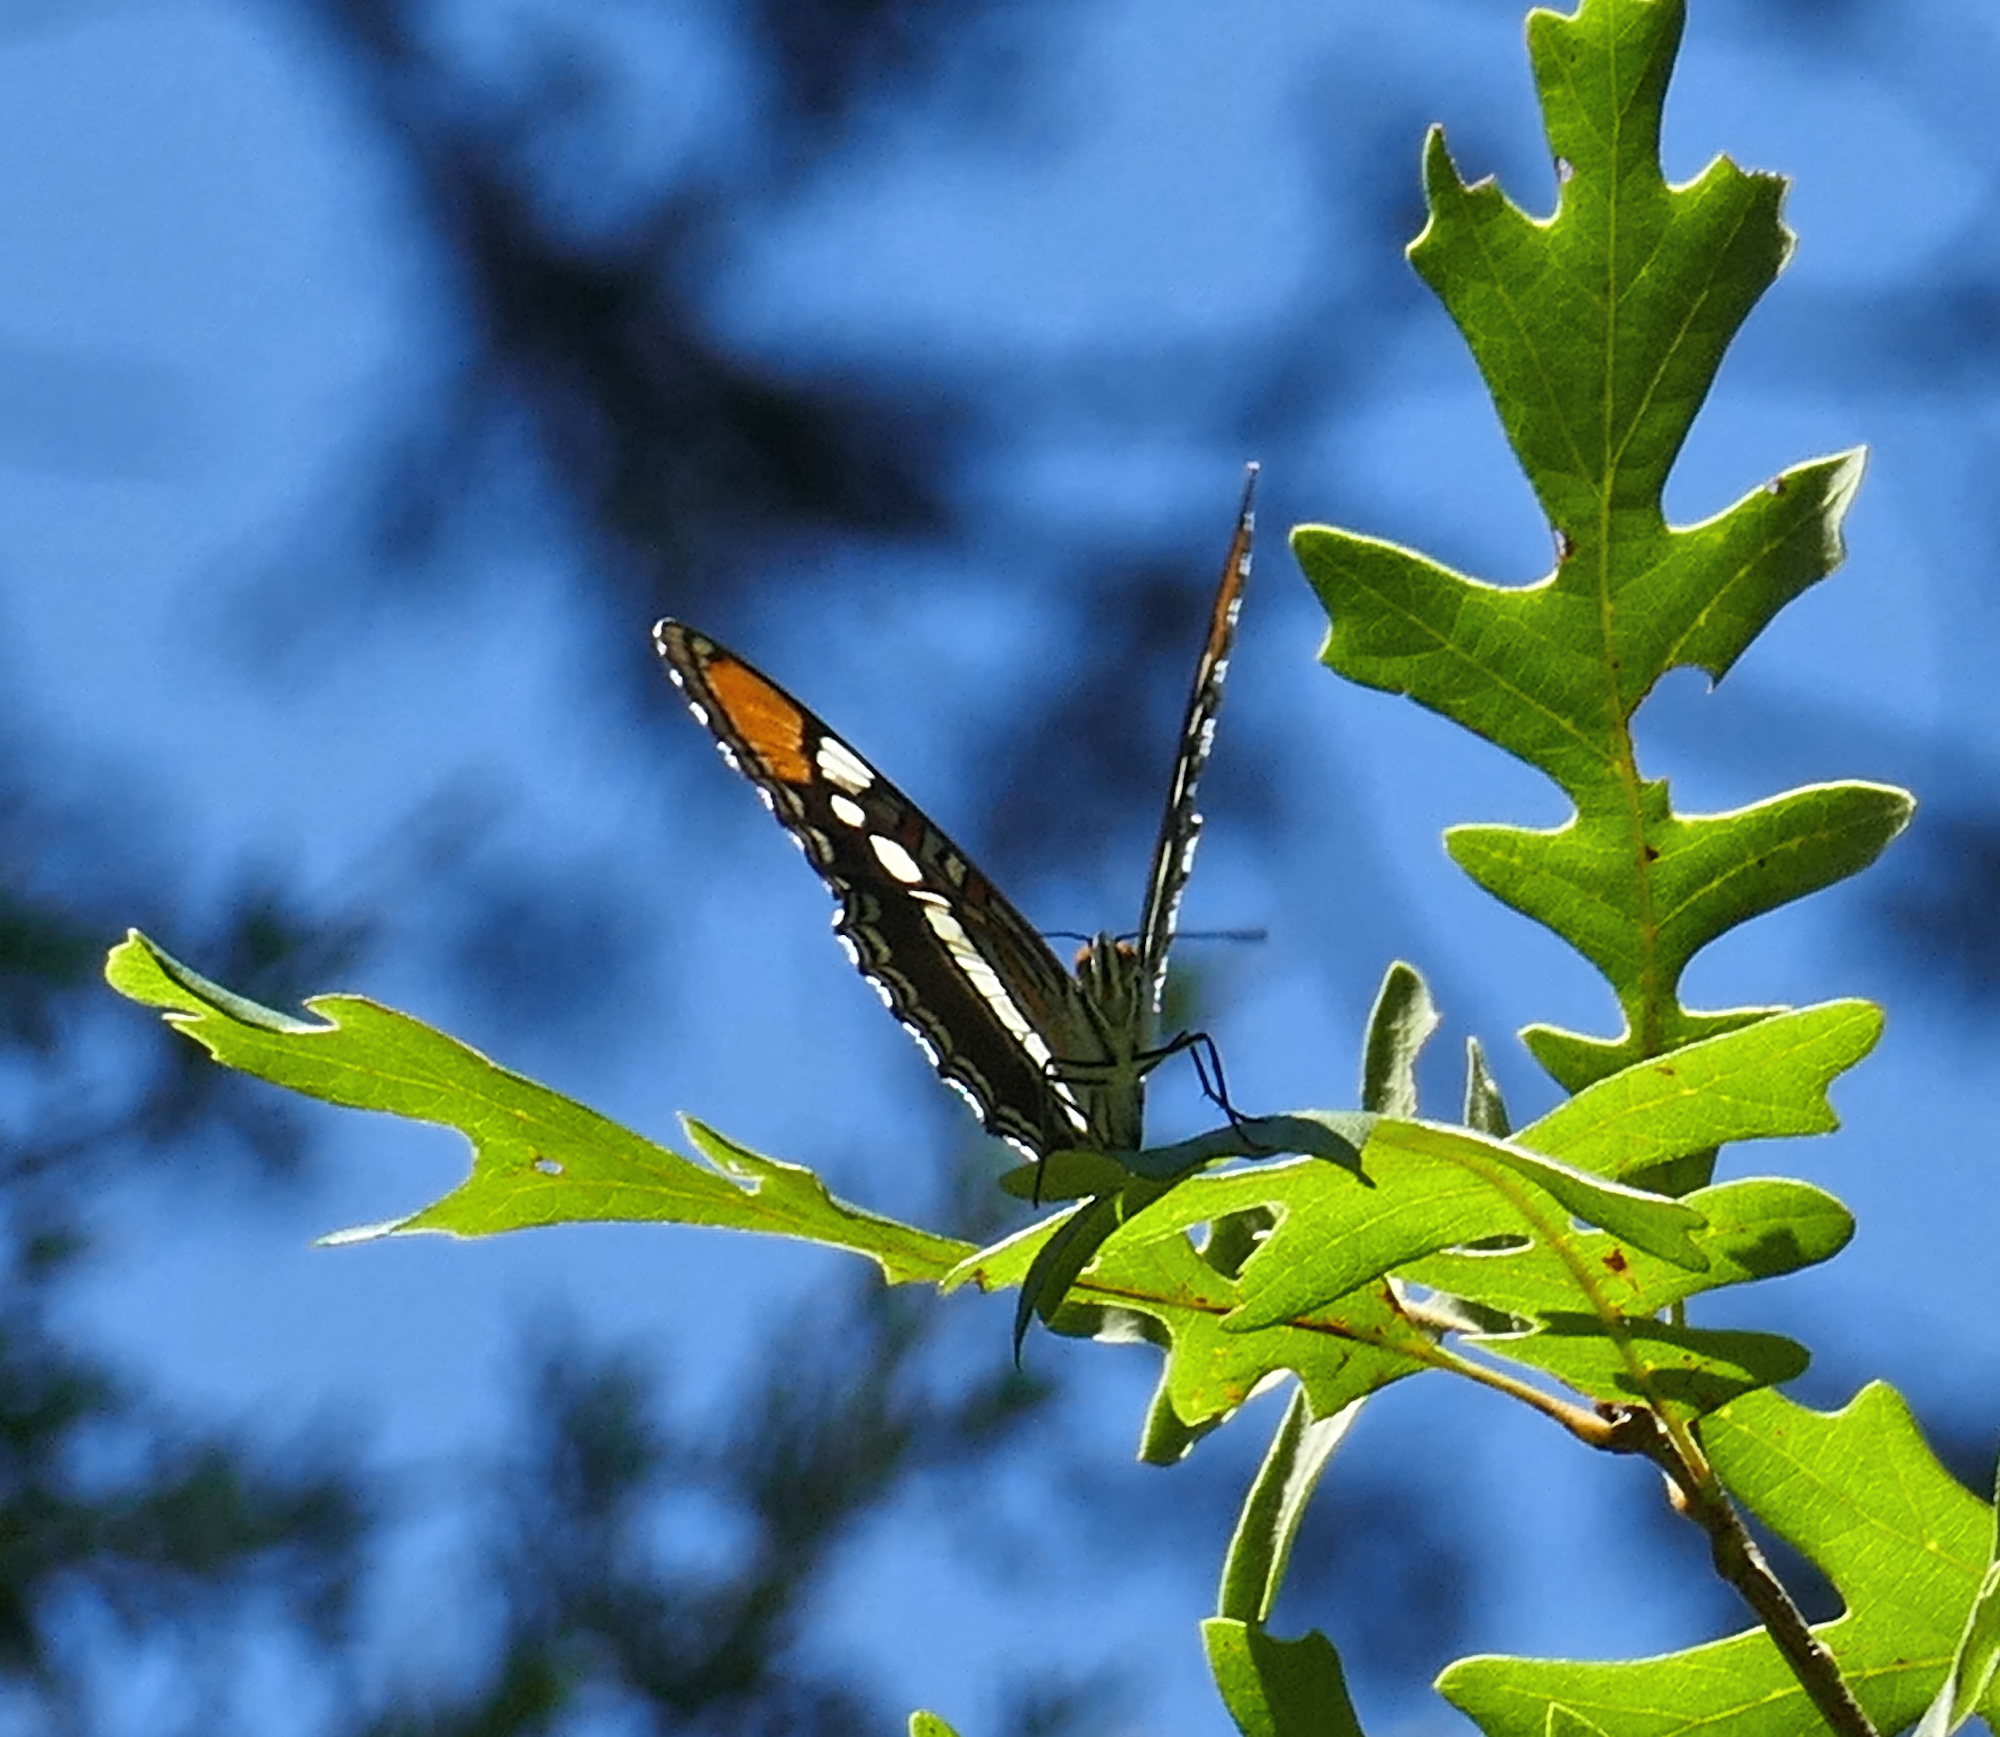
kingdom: Animalia
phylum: Arthropoda
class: Insecta
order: Lepidoptera
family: Nymphalidae
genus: Limenitis
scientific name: Limenitis bredowii
